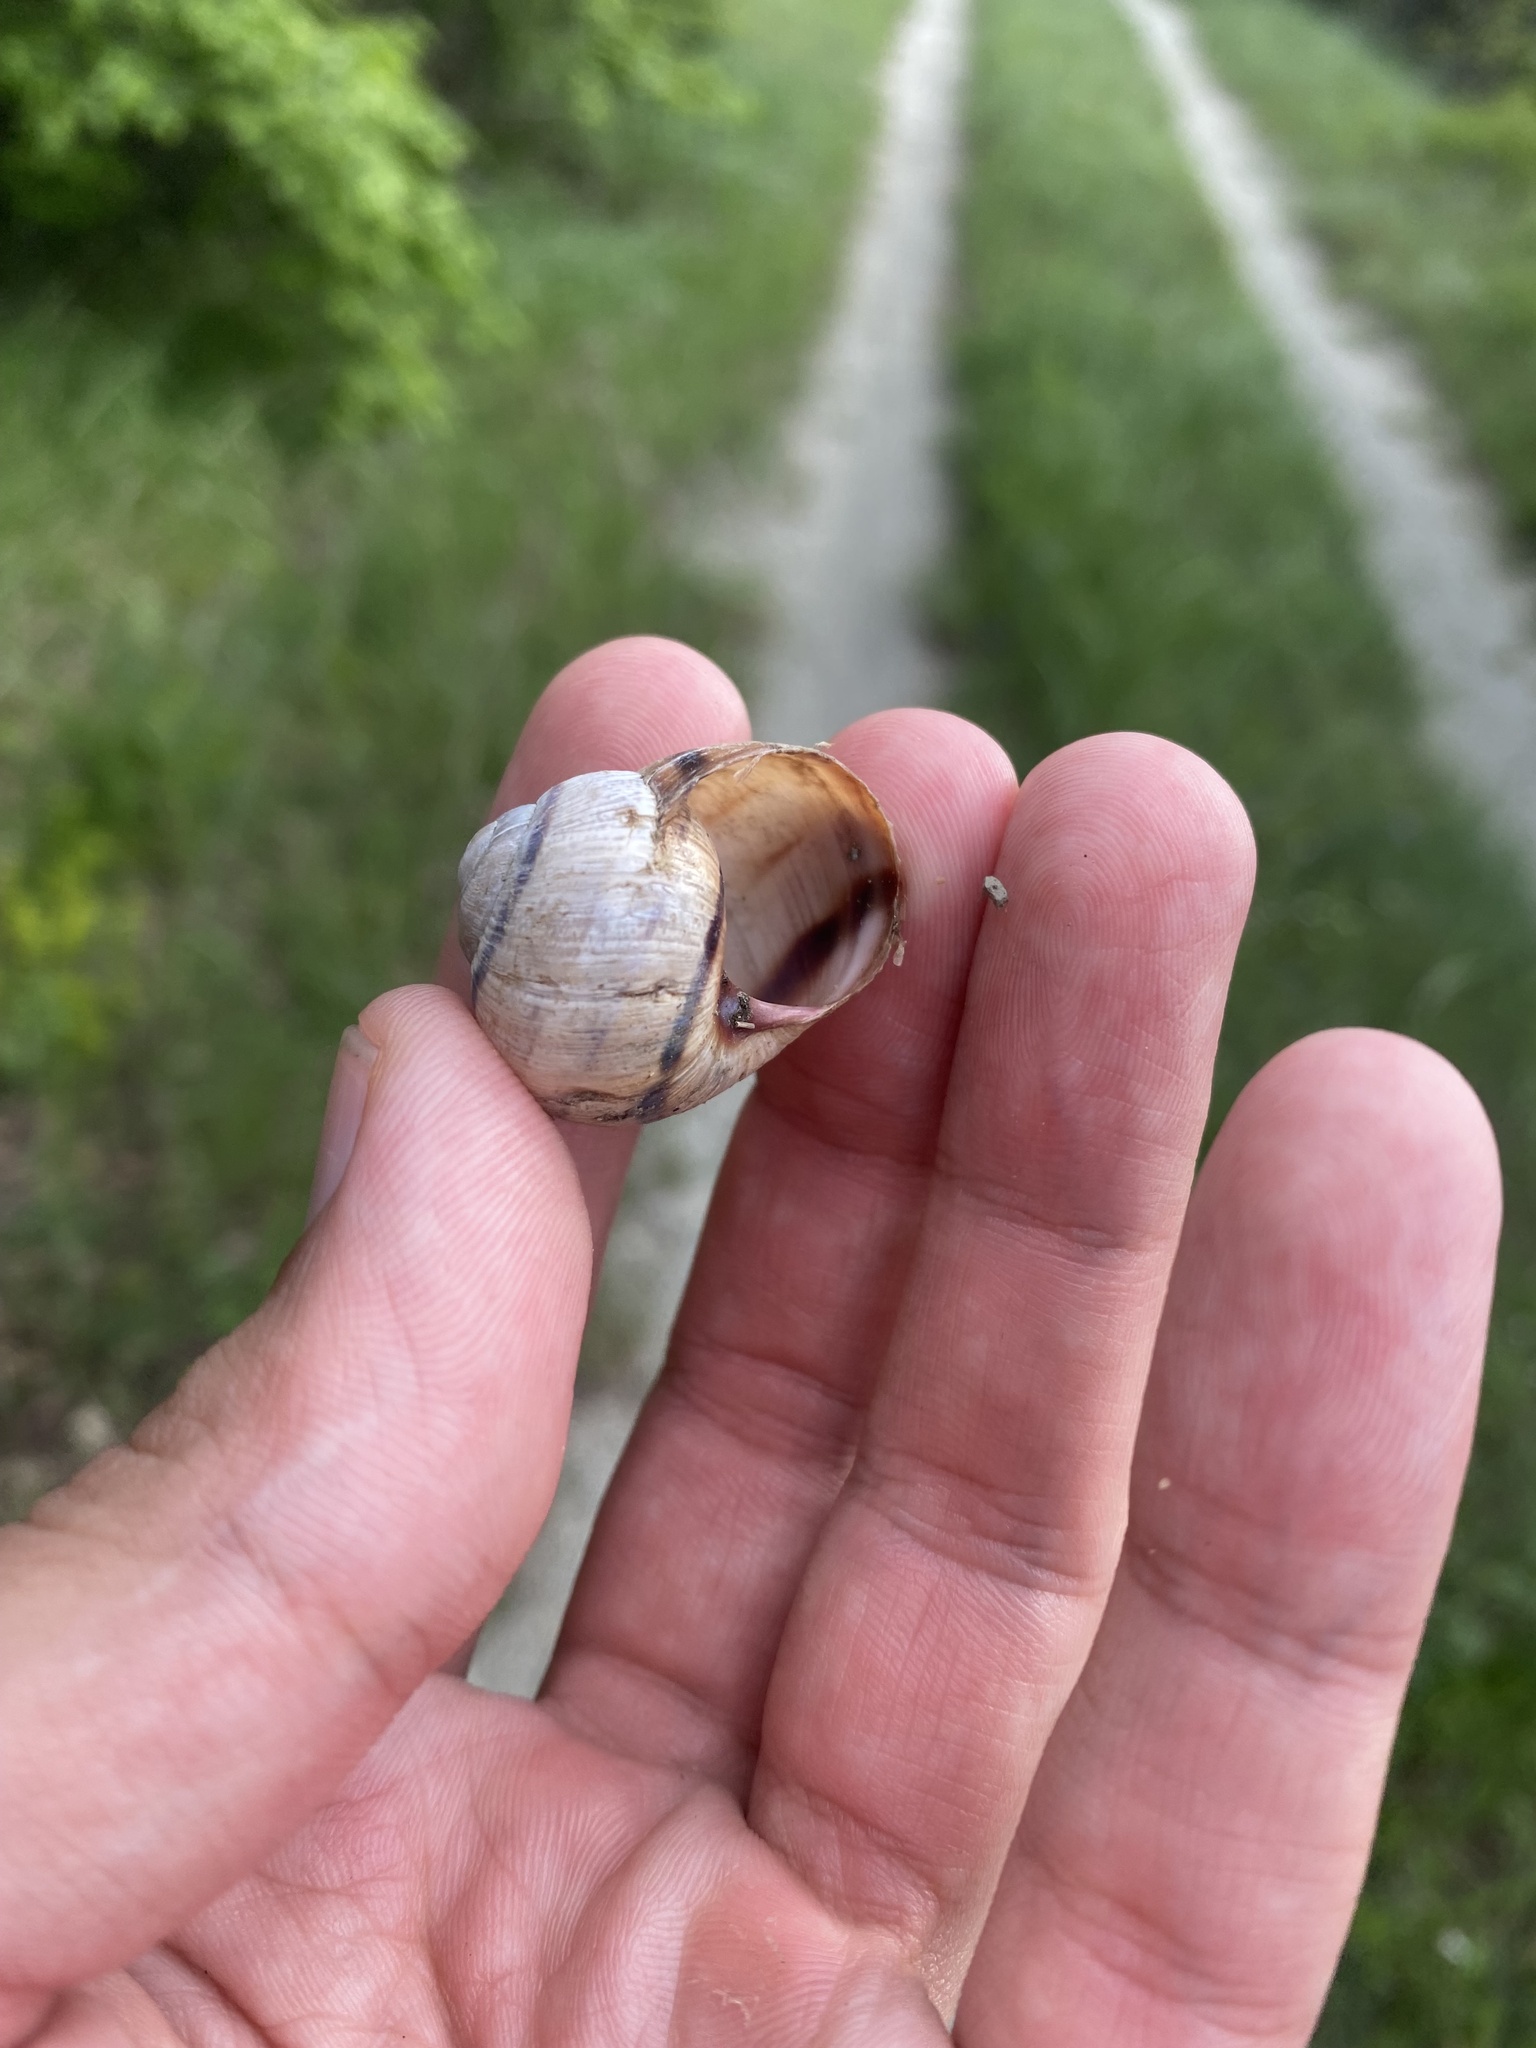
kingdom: Animalia
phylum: Mollusca
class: Gastropoda
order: Stylommatophora
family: Helicidae
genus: Helix
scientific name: Helix albescens
